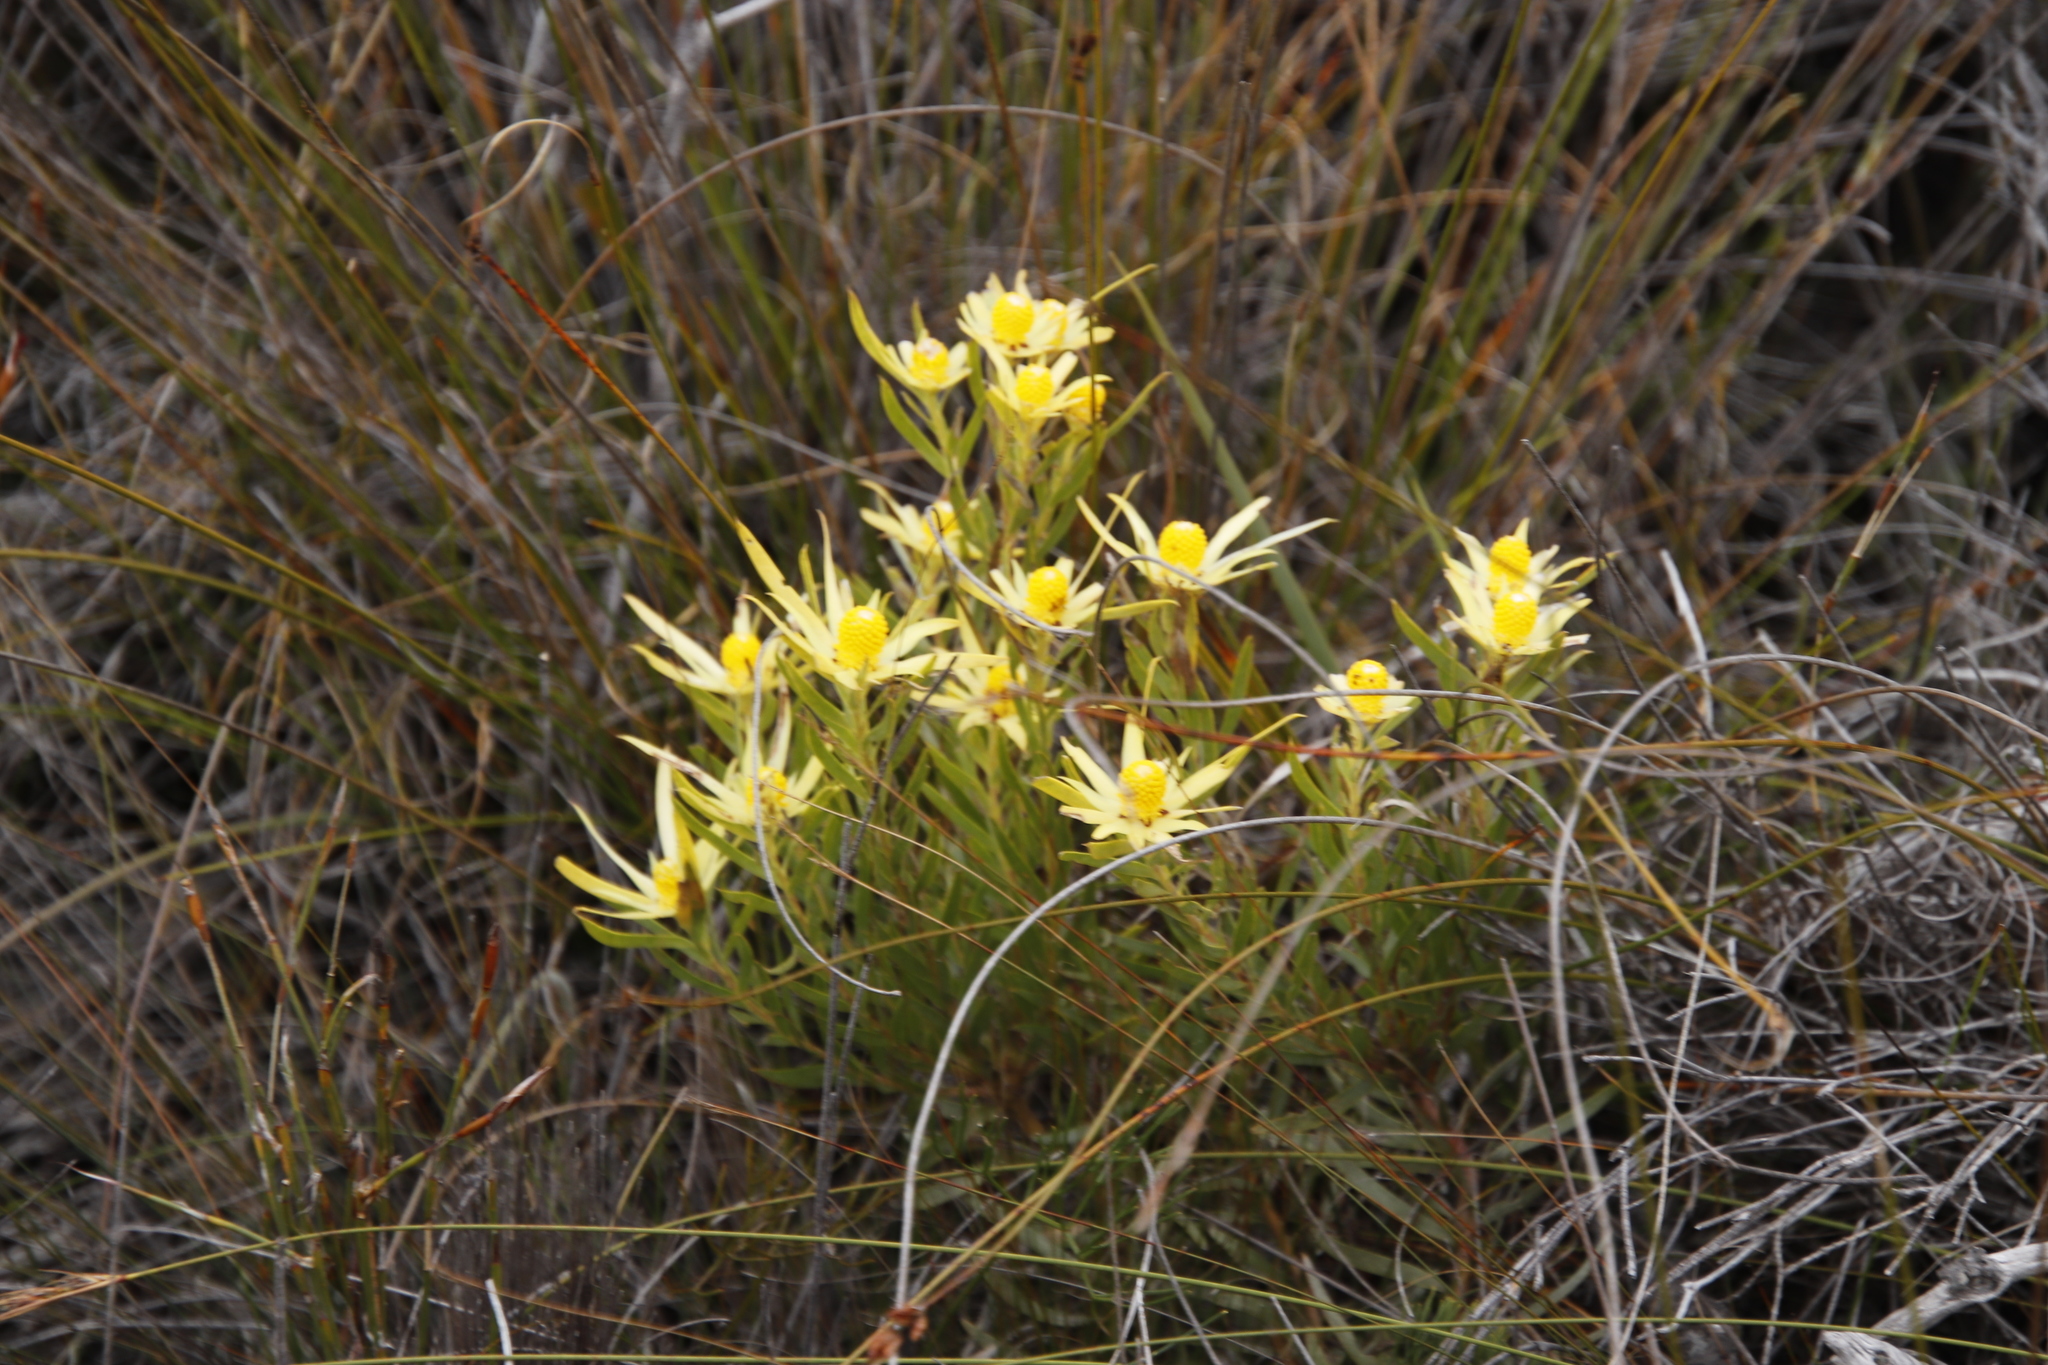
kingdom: Plantae
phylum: Tracheophyta
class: Magnoliopsida
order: Proteales
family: Proteaceae
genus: Leucadendron
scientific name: Leucadendron xanthoconus
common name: Sickle-leaf conebush
